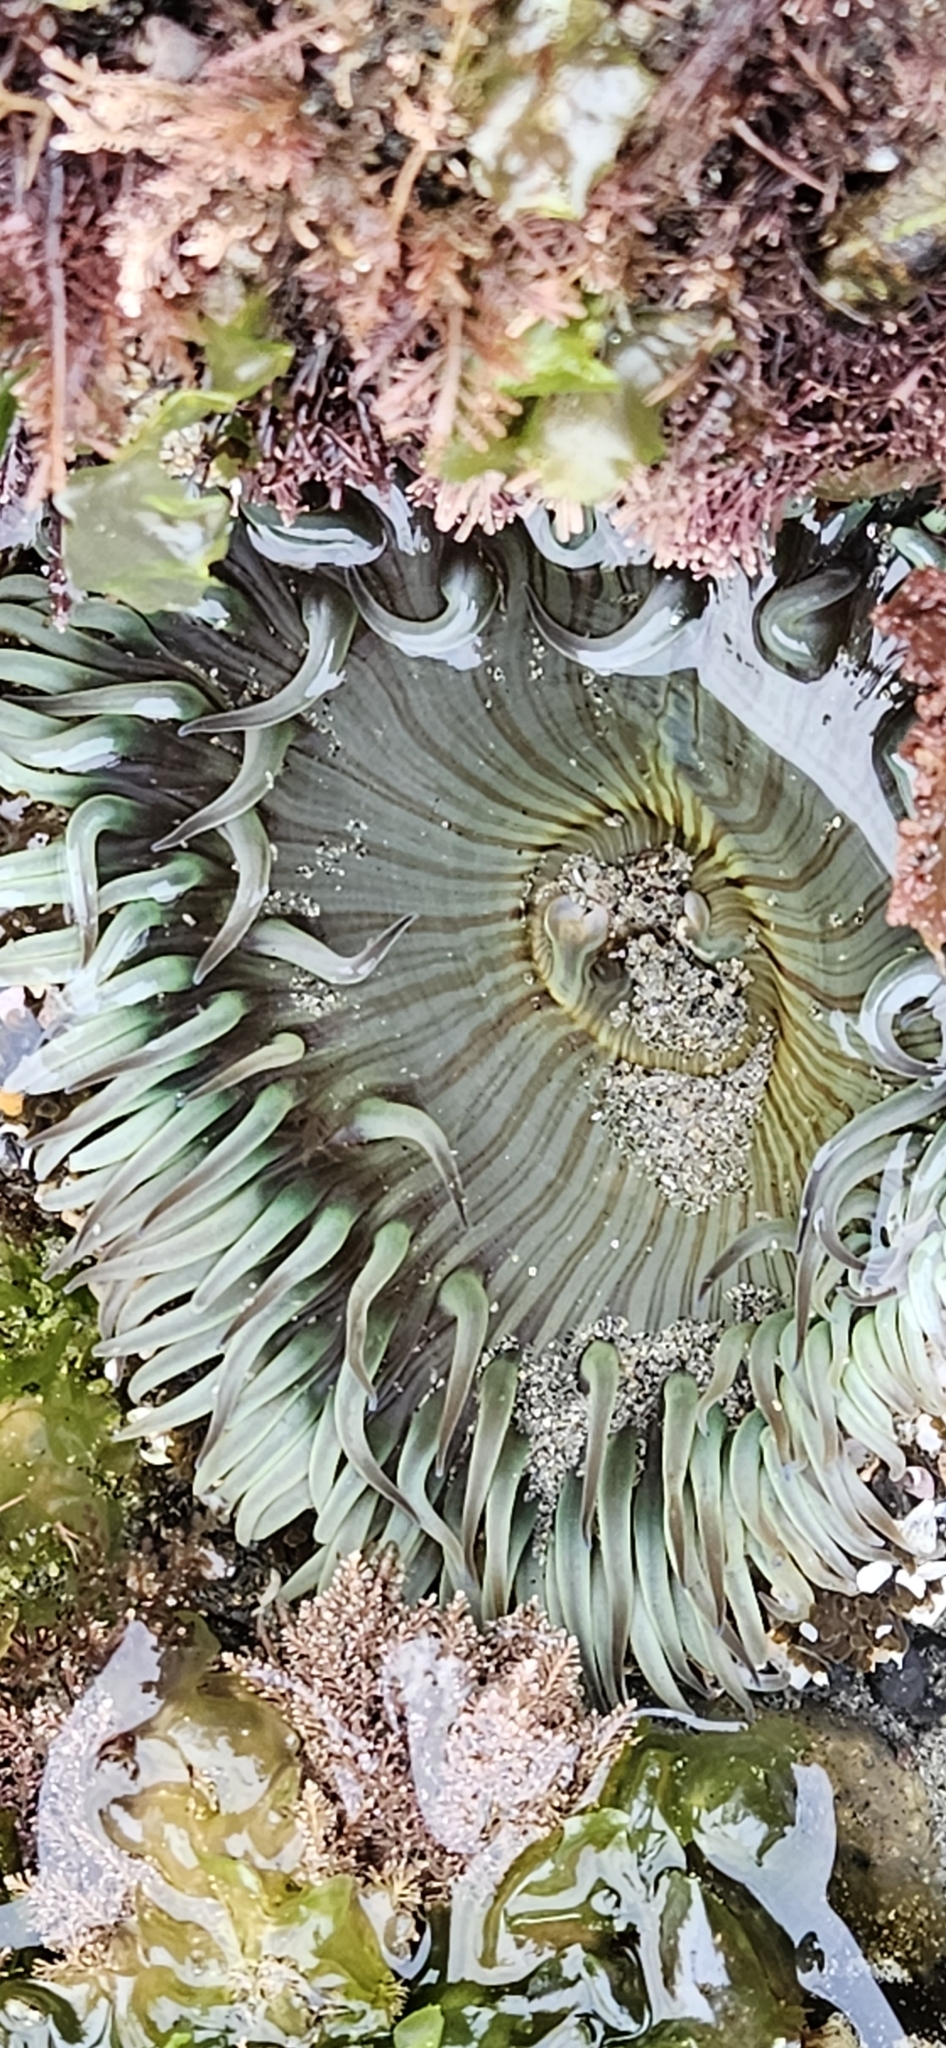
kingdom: Animalia
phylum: Cnidaria
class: Anthozoa
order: Actiniaria
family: Actiniidae
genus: Anthopleura
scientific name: Anthopleura sola
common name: Sun anemone
